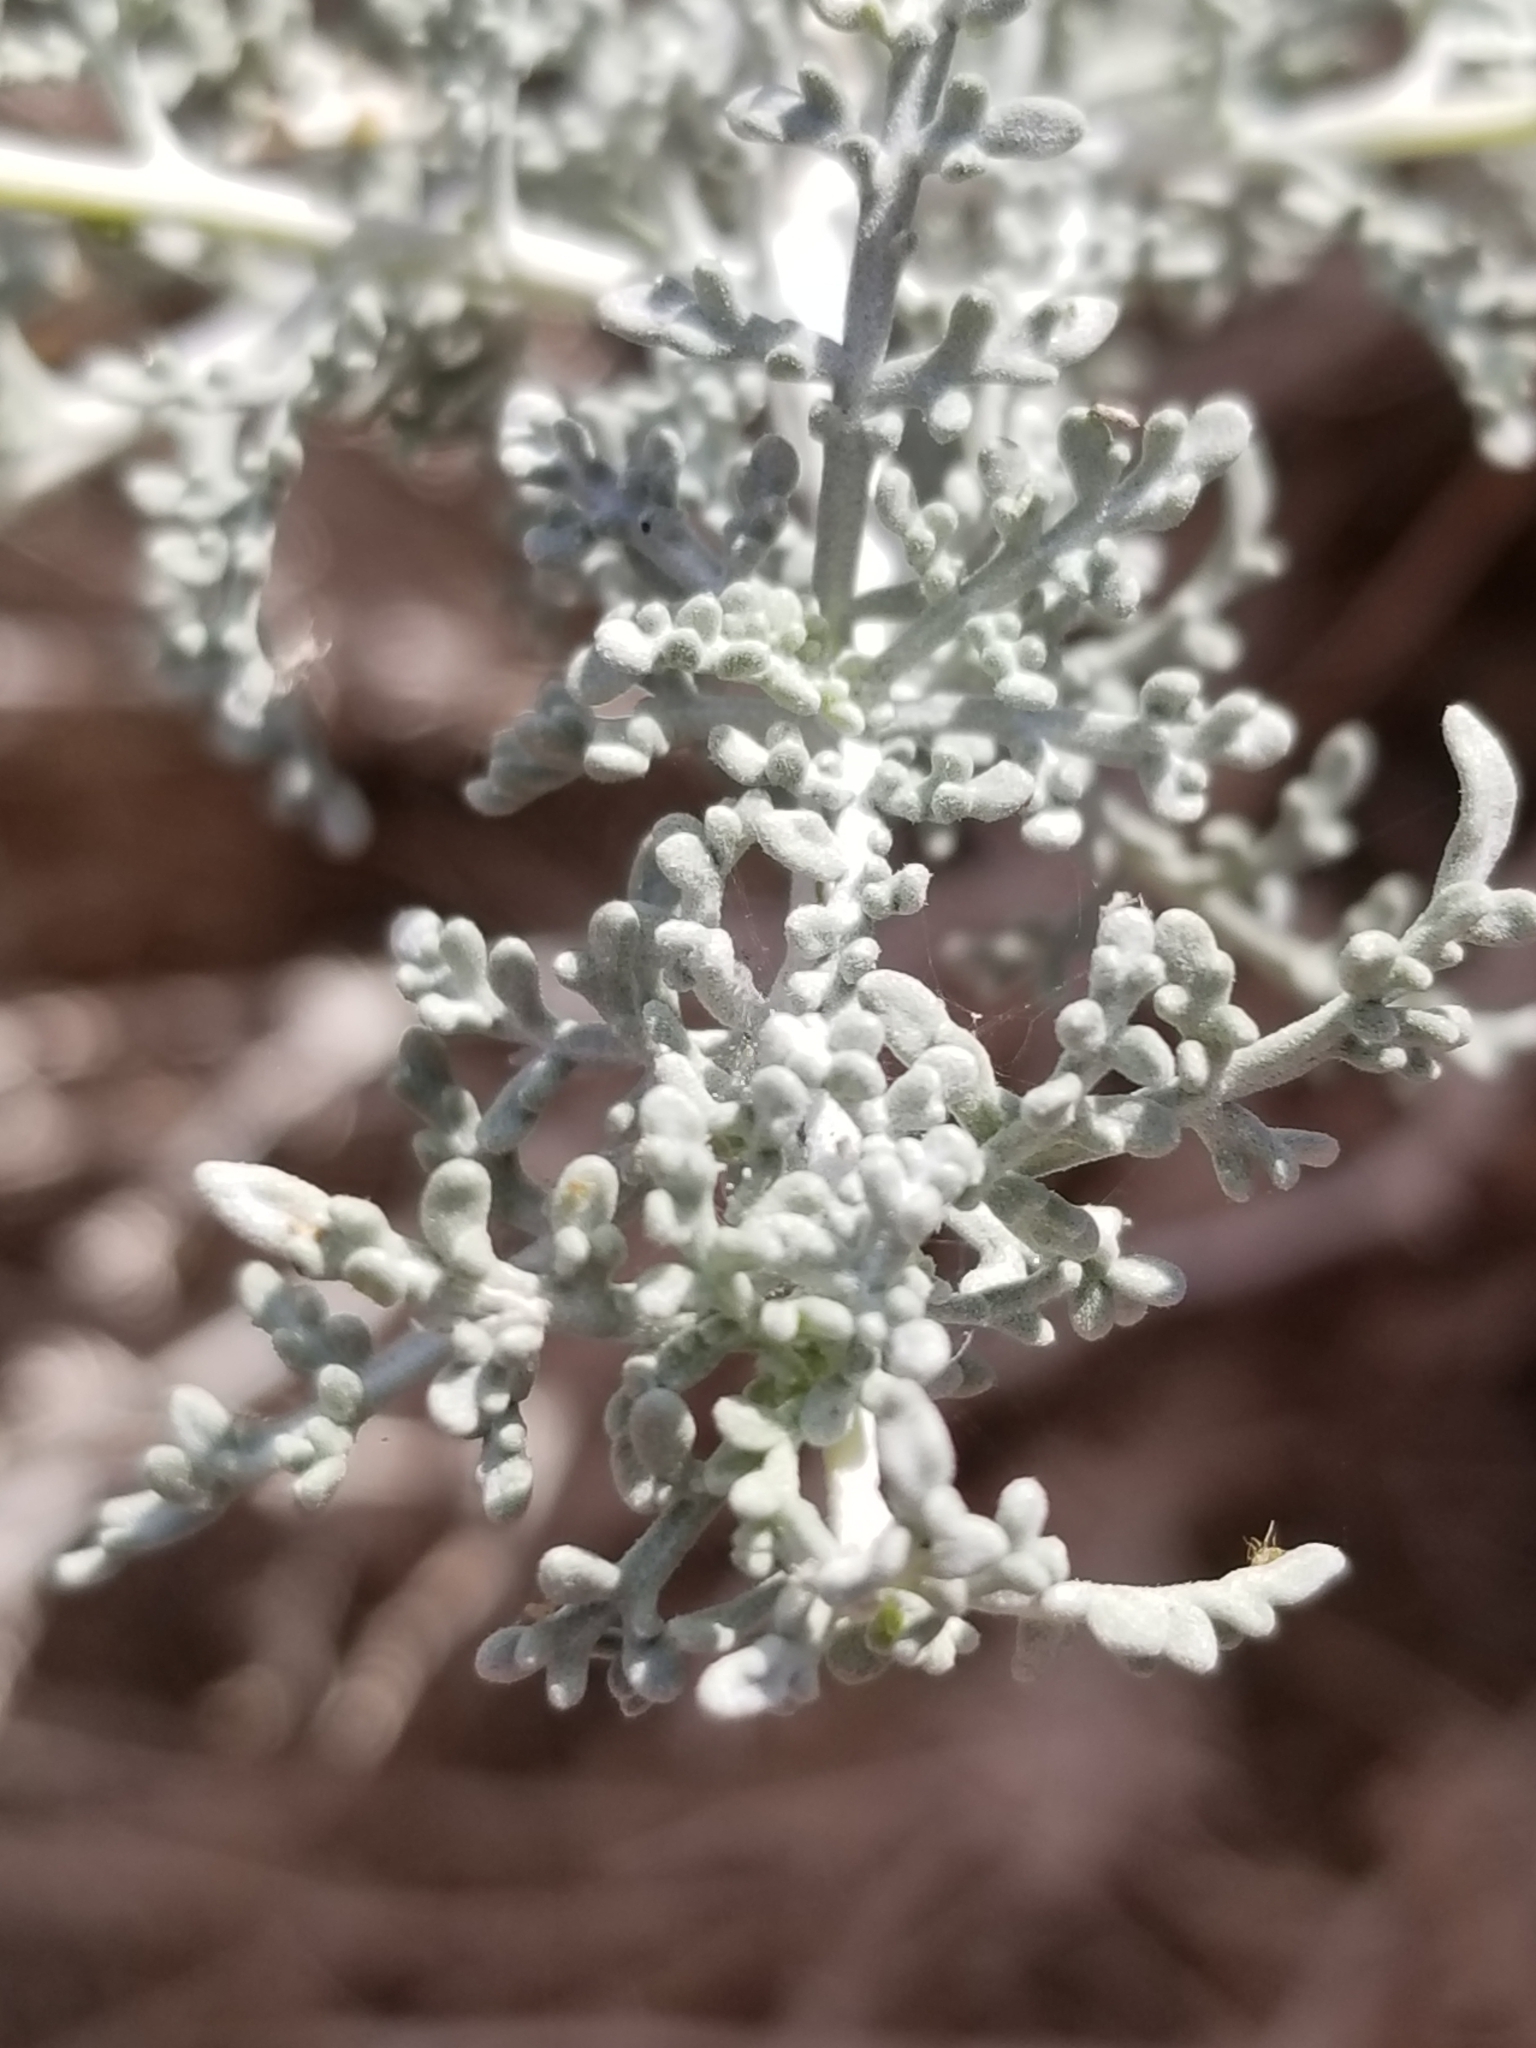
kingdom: Plantae
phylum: Tracheophyta
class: Magnoliopsida
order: Asterales
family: Asteraceae
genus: Ambrosia
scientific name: Ambrosia dumosa
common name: Bur-sage
